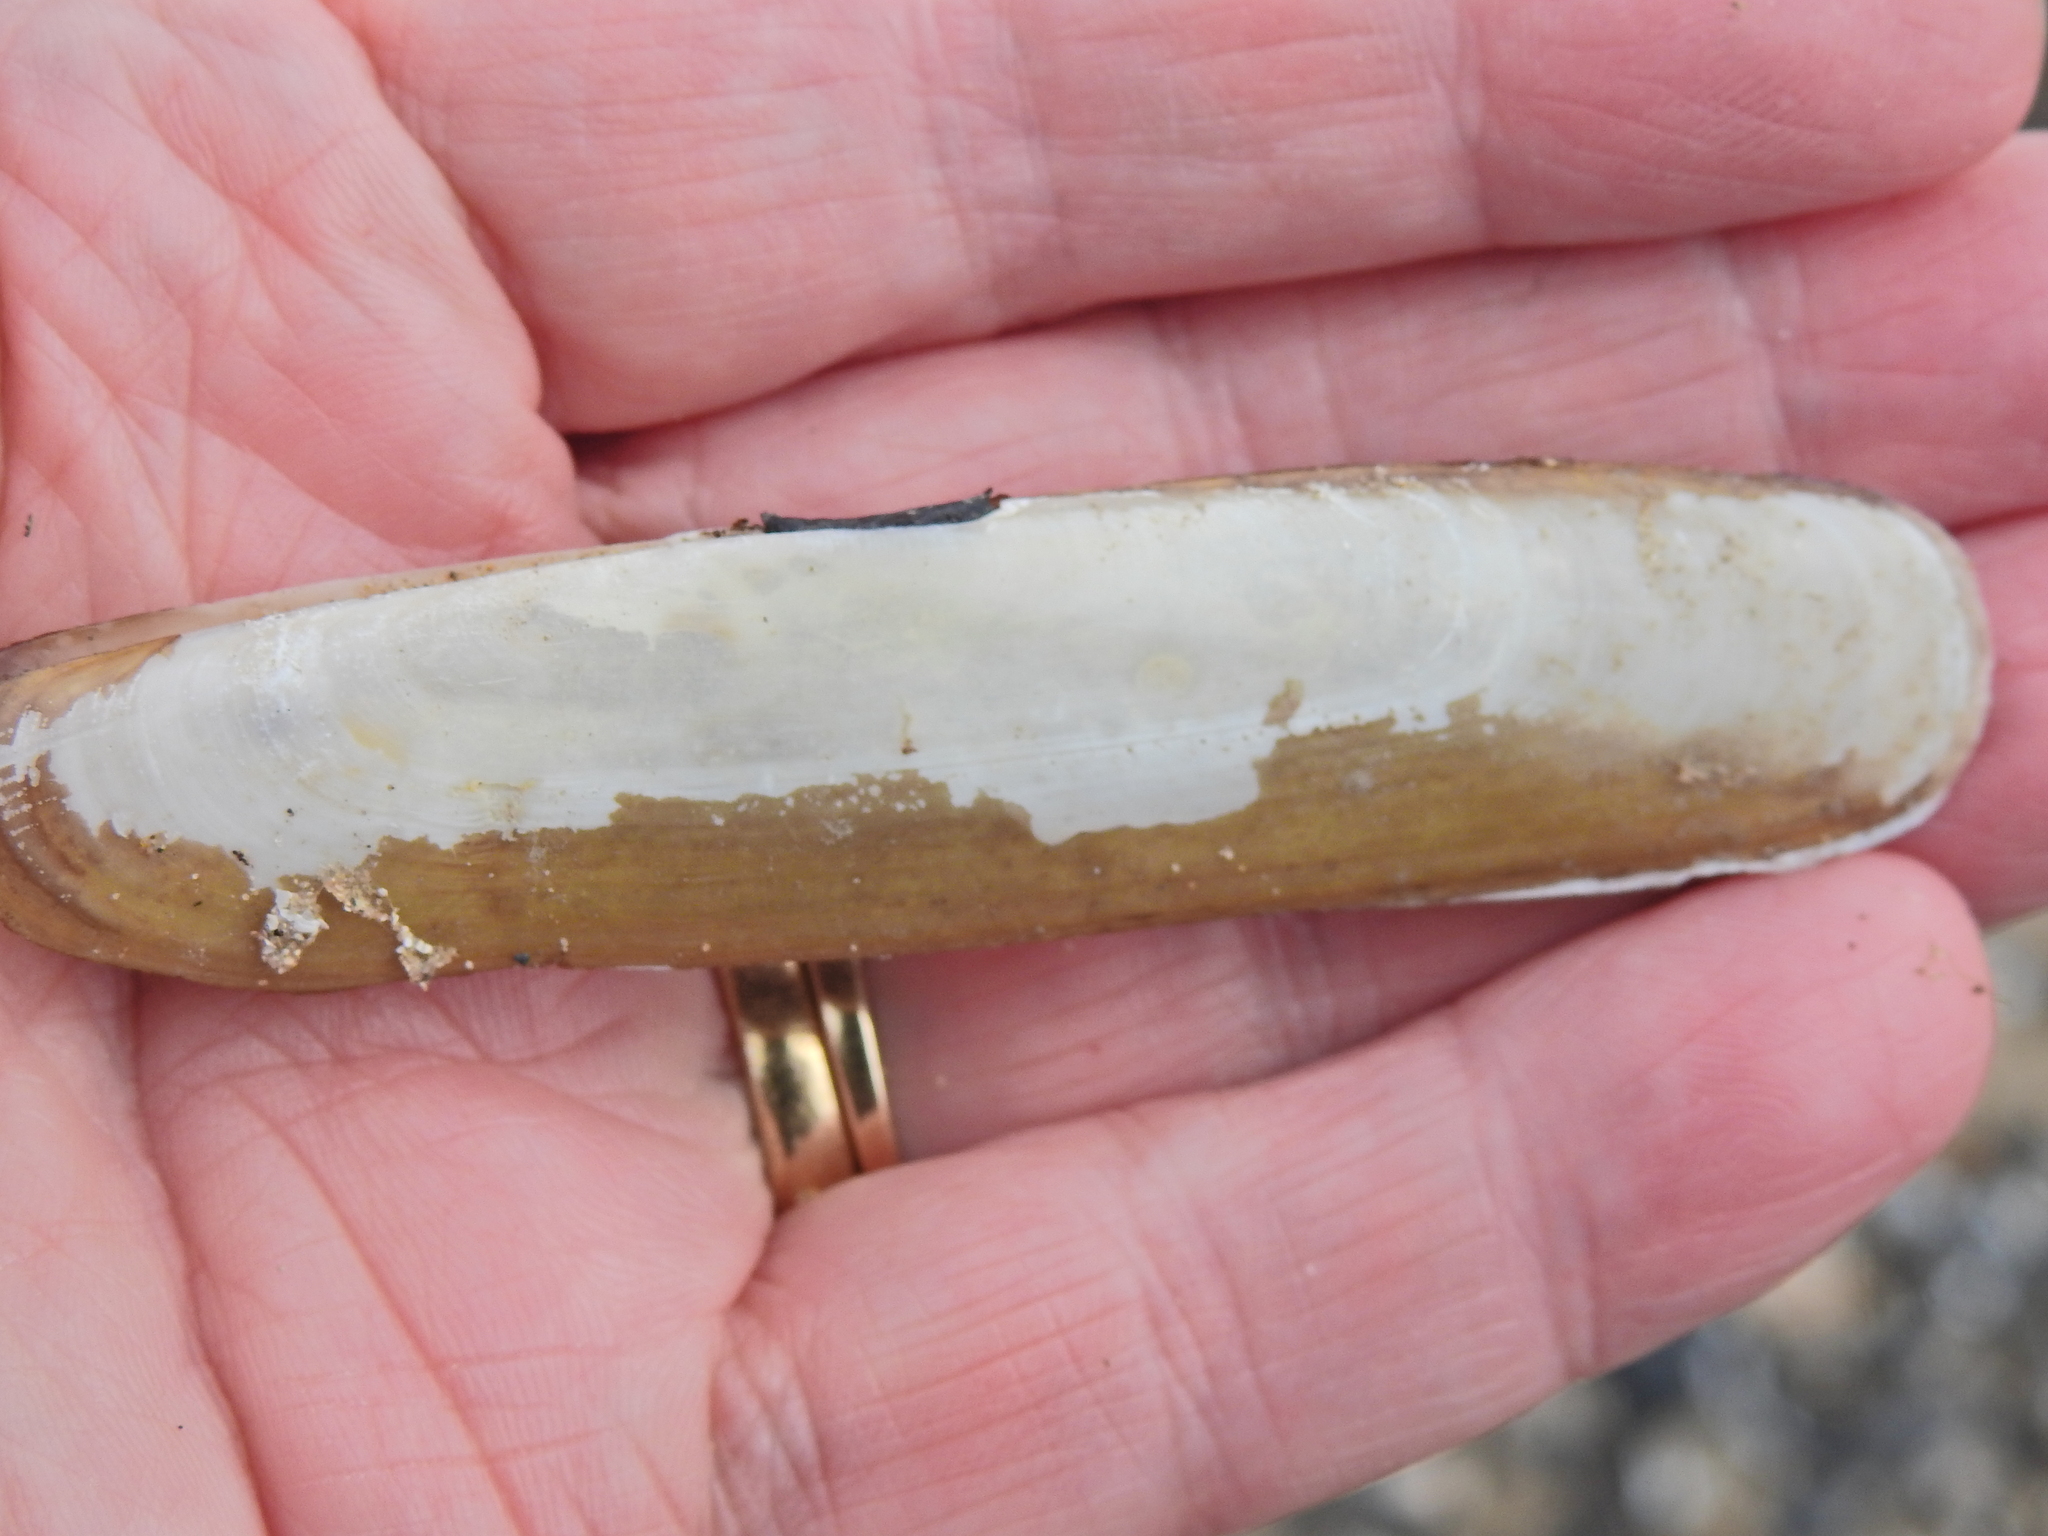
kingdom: Animalia
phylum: Mollusca
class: Bivalvia
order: Adapedonta
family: Pharidae
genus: Pharus
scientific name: Pharus legumen
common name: Bean razor clam
